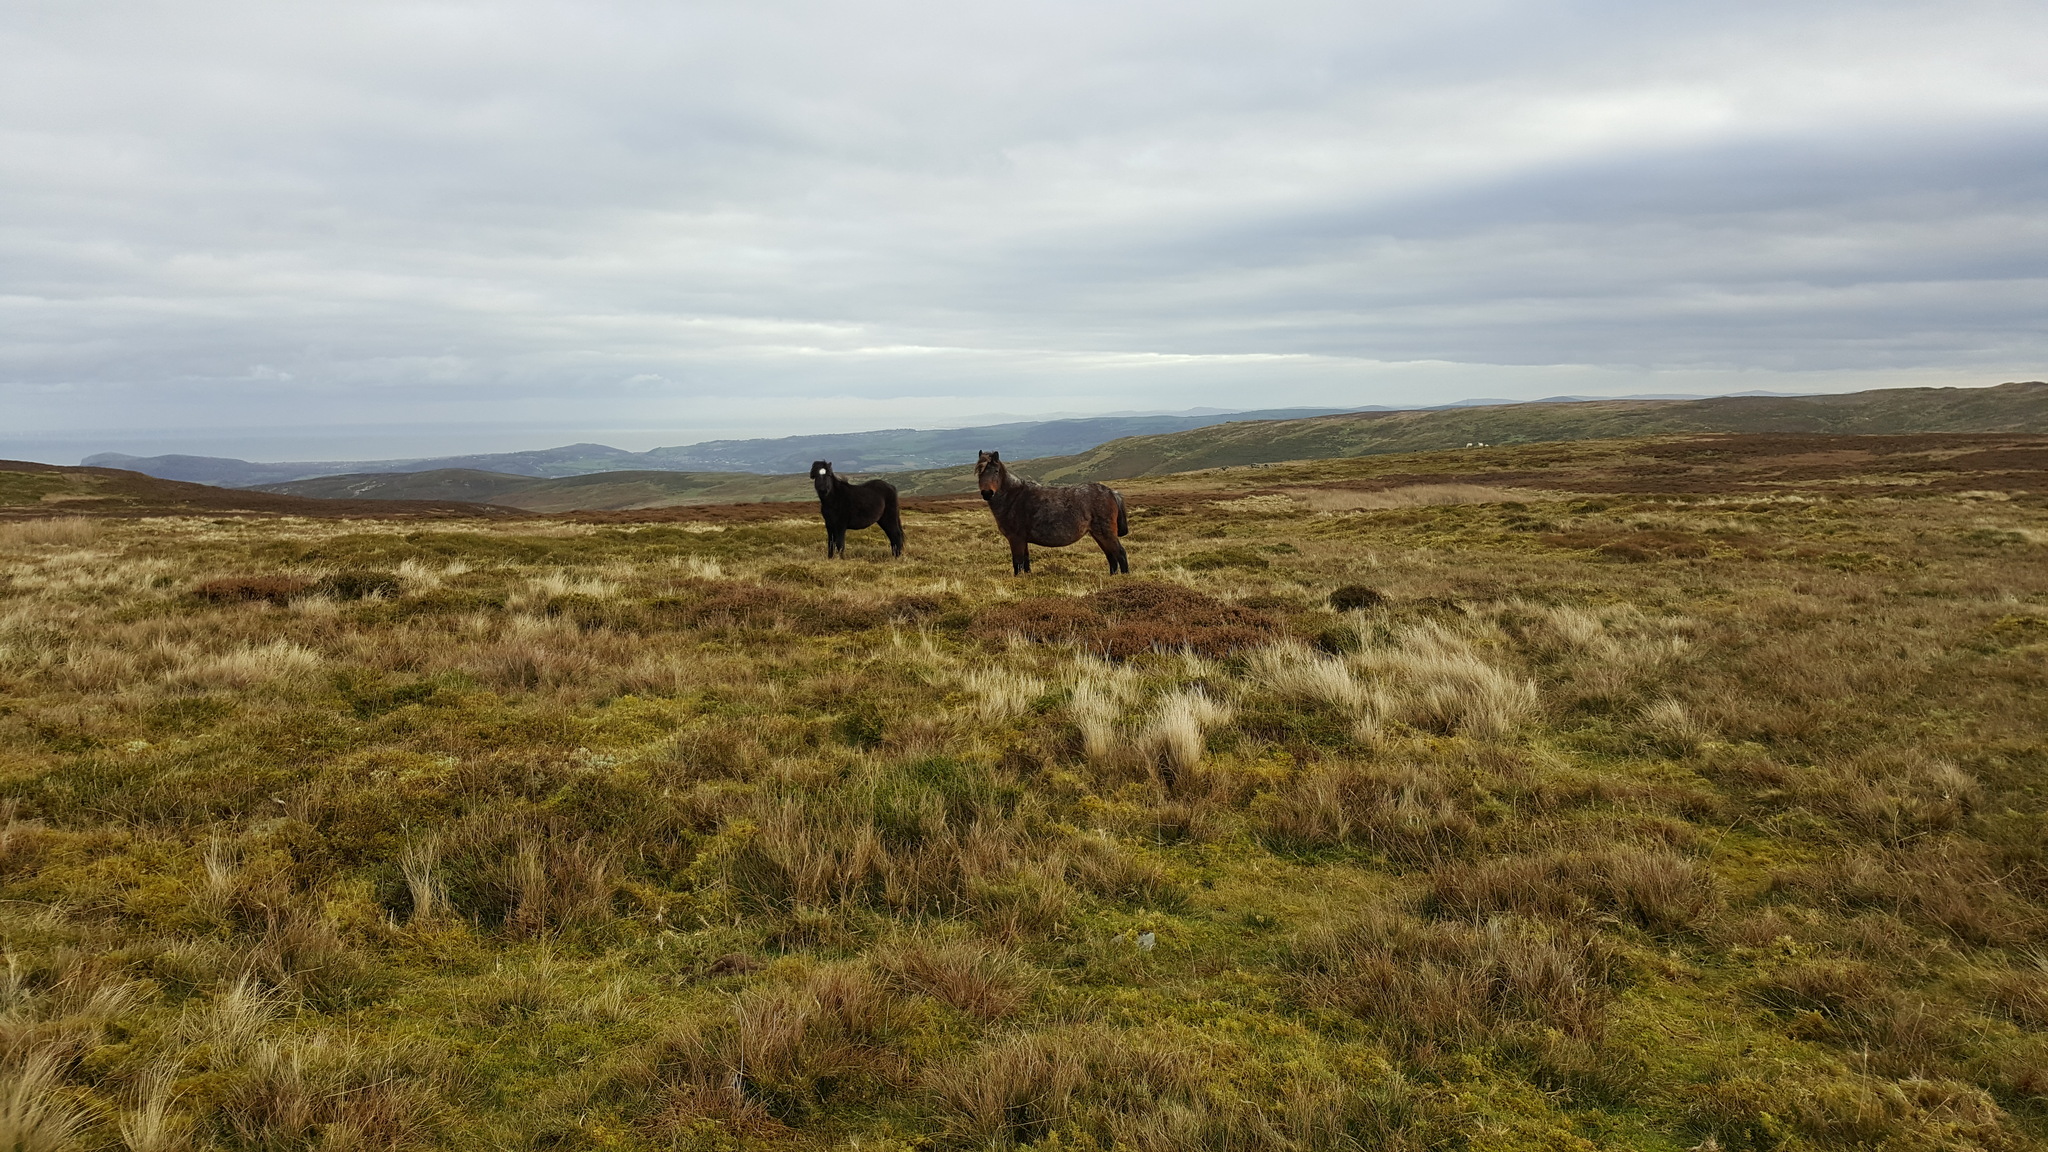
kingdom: Animalia
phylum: Chordata
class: Mammalia
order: Perissodactyla
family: Equidae
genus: Equus
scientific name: Equus caballus
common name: Horse
